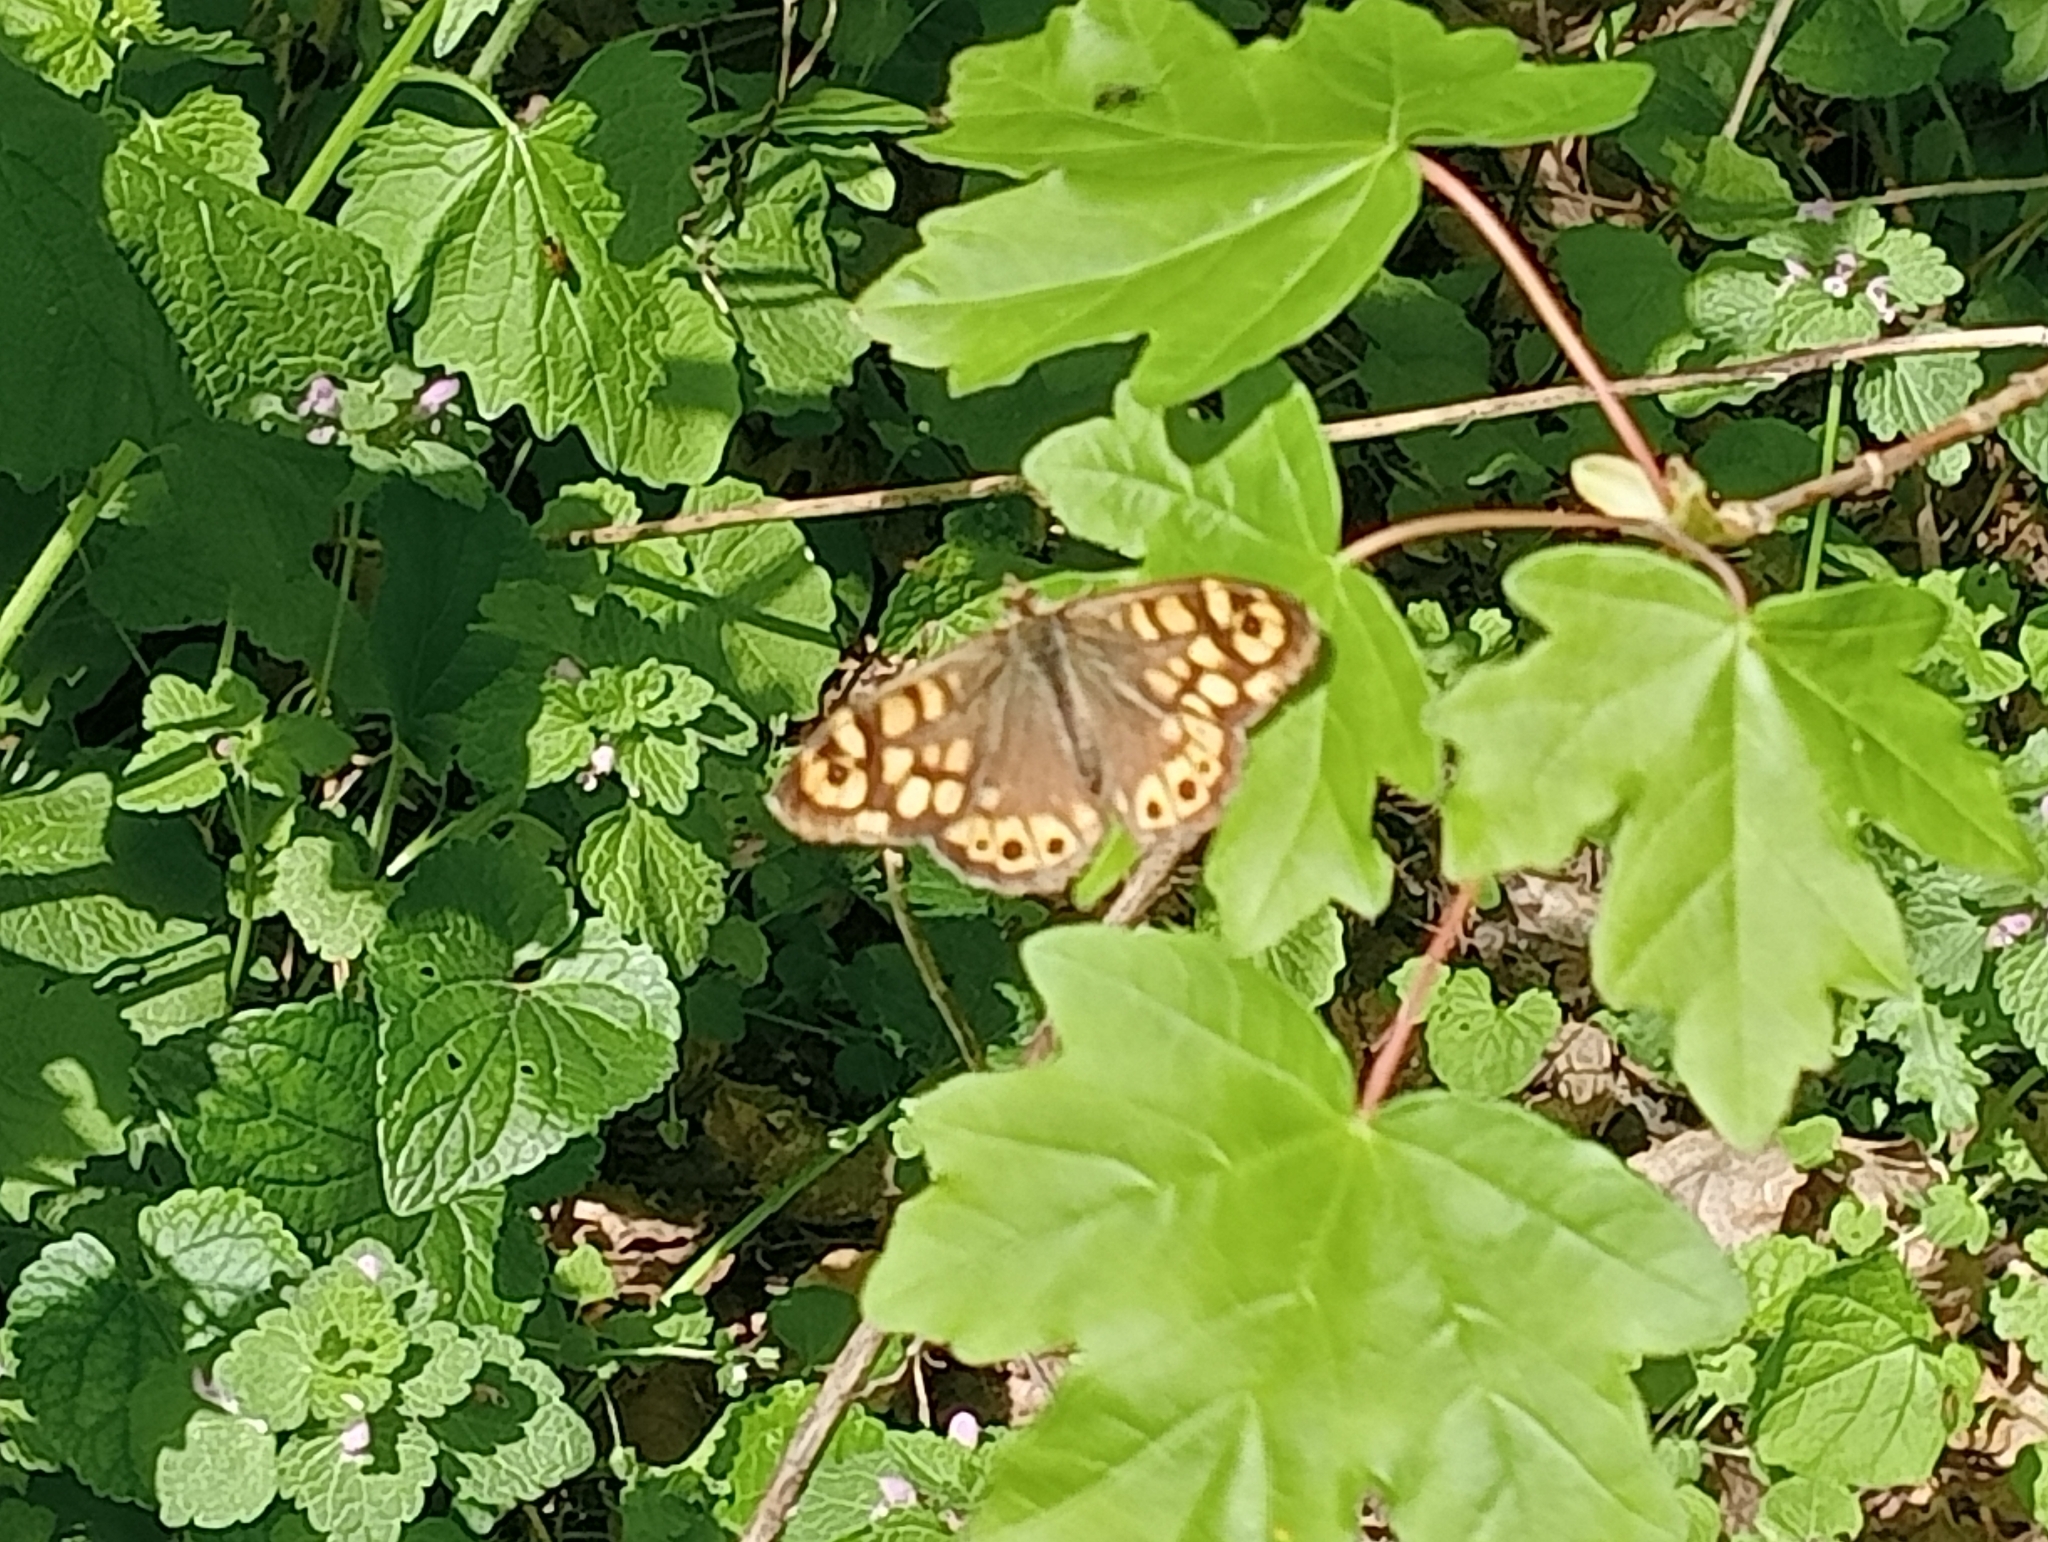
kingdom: Animalia
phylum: Arthropoda
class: Insecta
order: Lepidoptera
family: Nymphalidae
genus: Pararge
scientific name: Pararge aegeria
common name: Speckled wood
